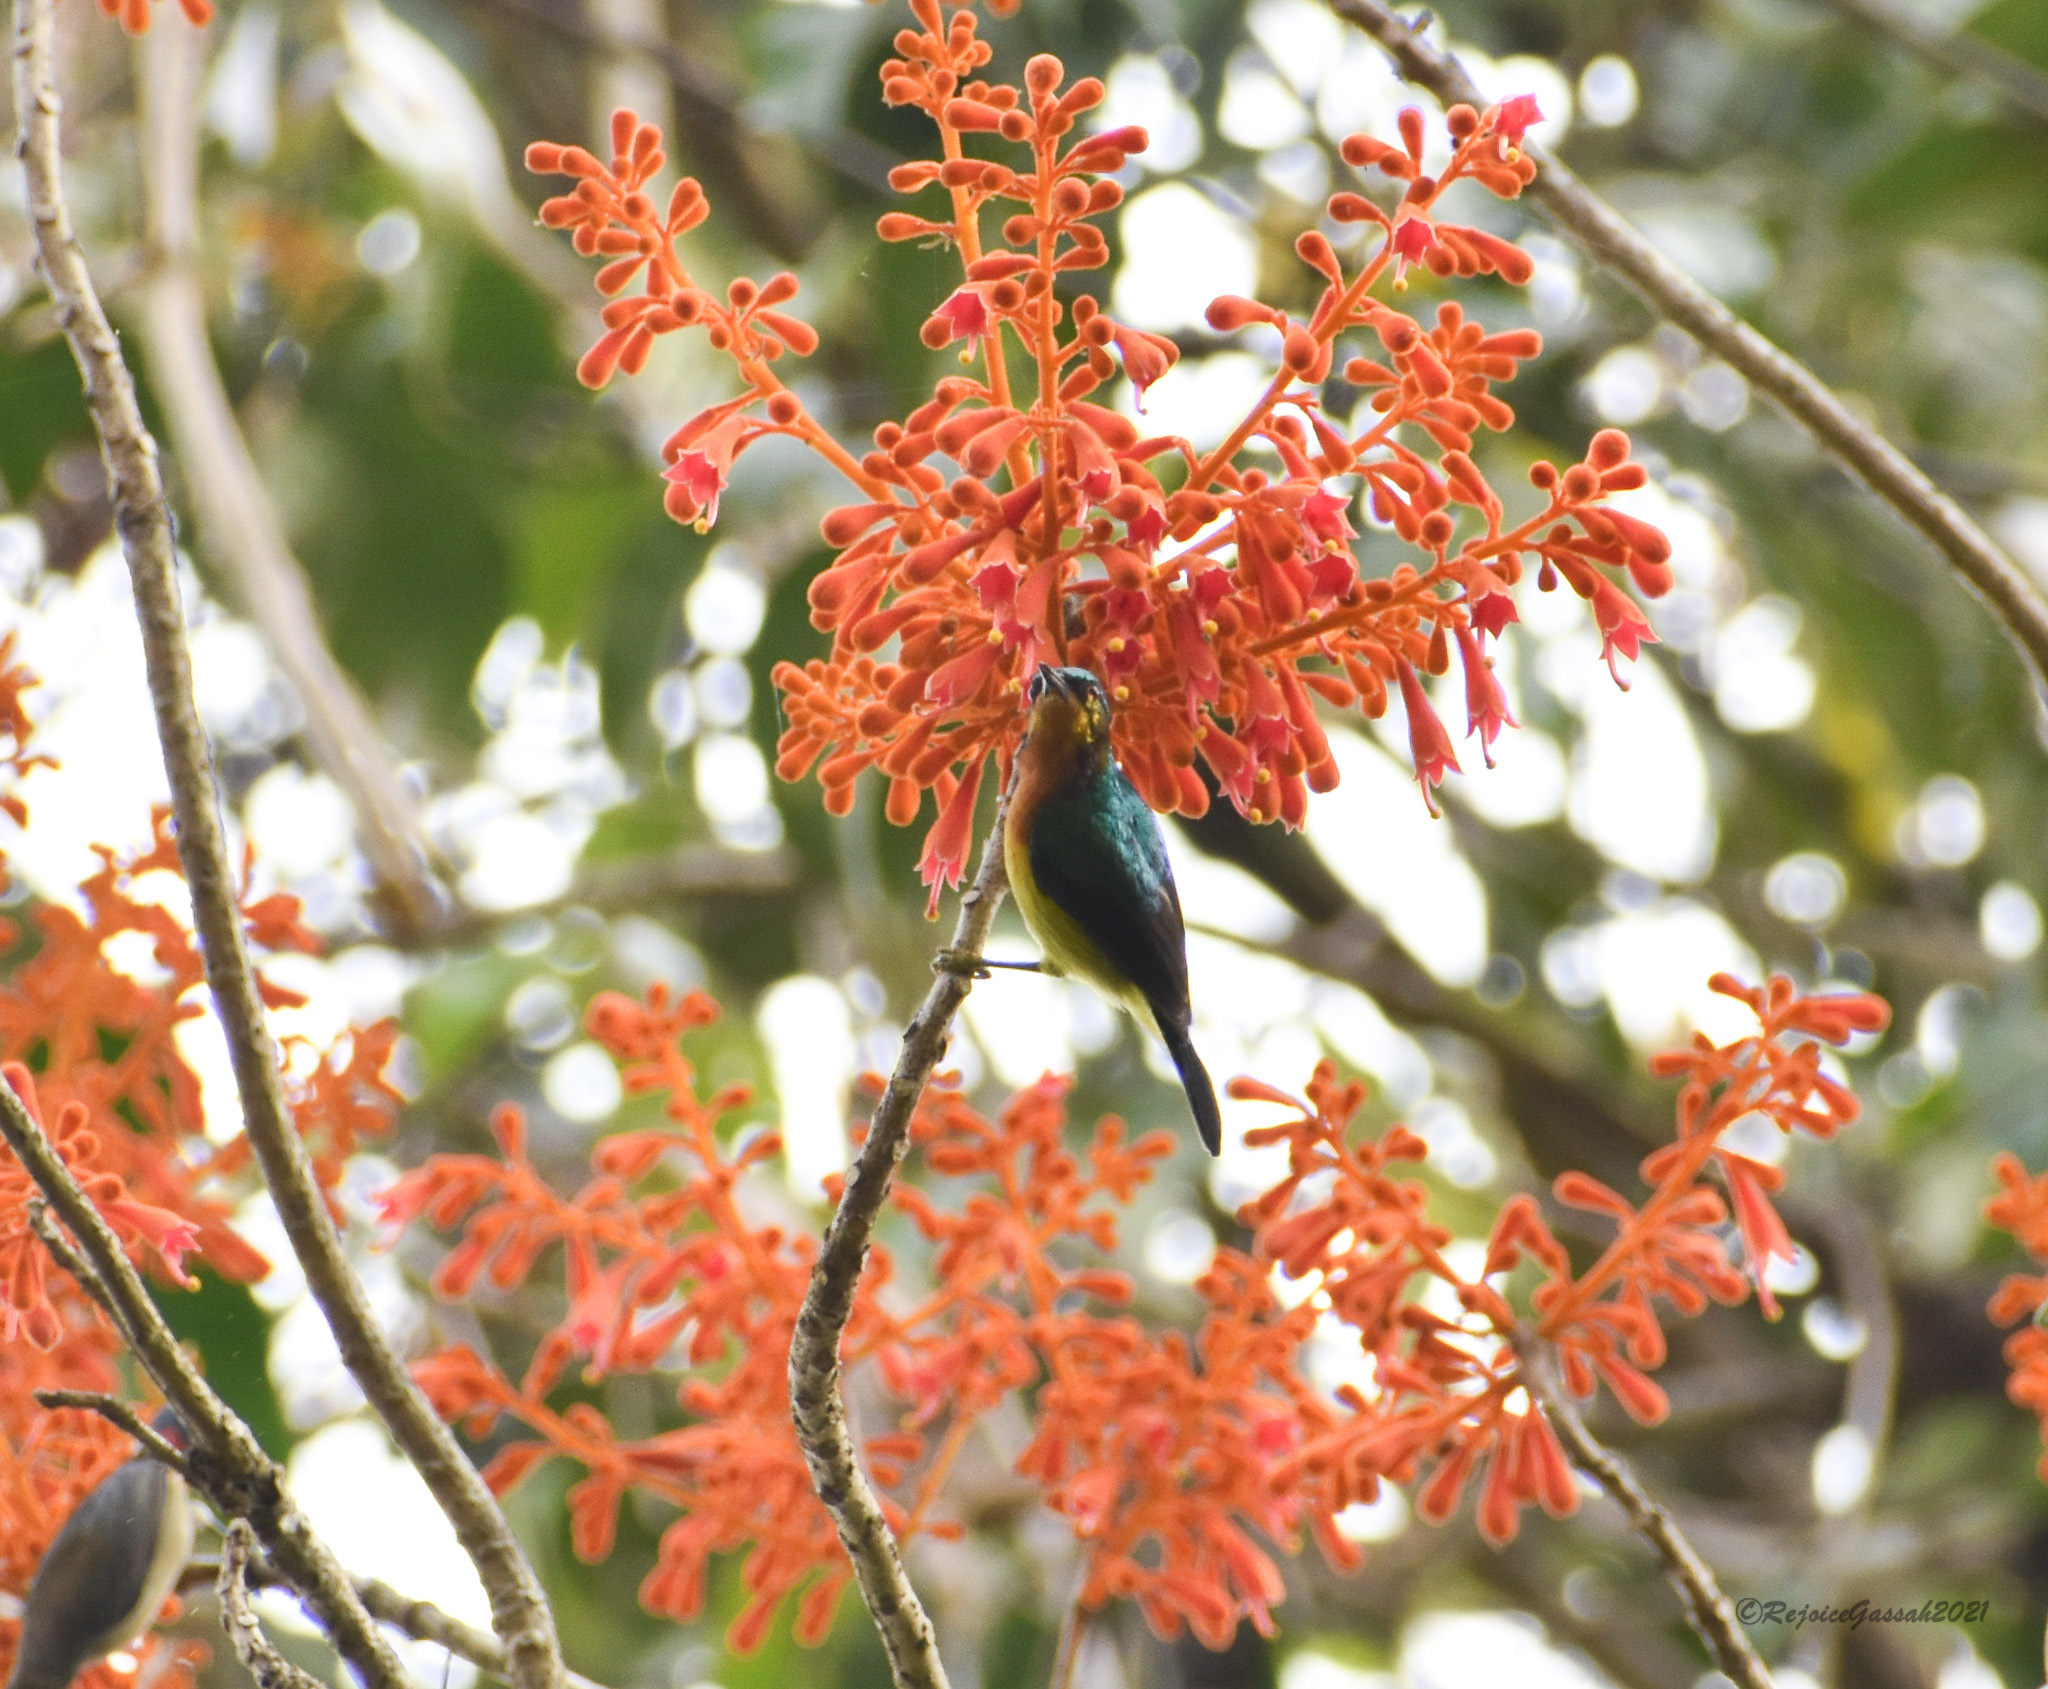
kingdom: Animalia
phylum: Chordata
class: Aves
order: Passeriformes
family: Nectariniidae
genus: Chalcoparia
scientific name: Chalcoparia singalensis
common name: Ruby-cheeked sunbird
